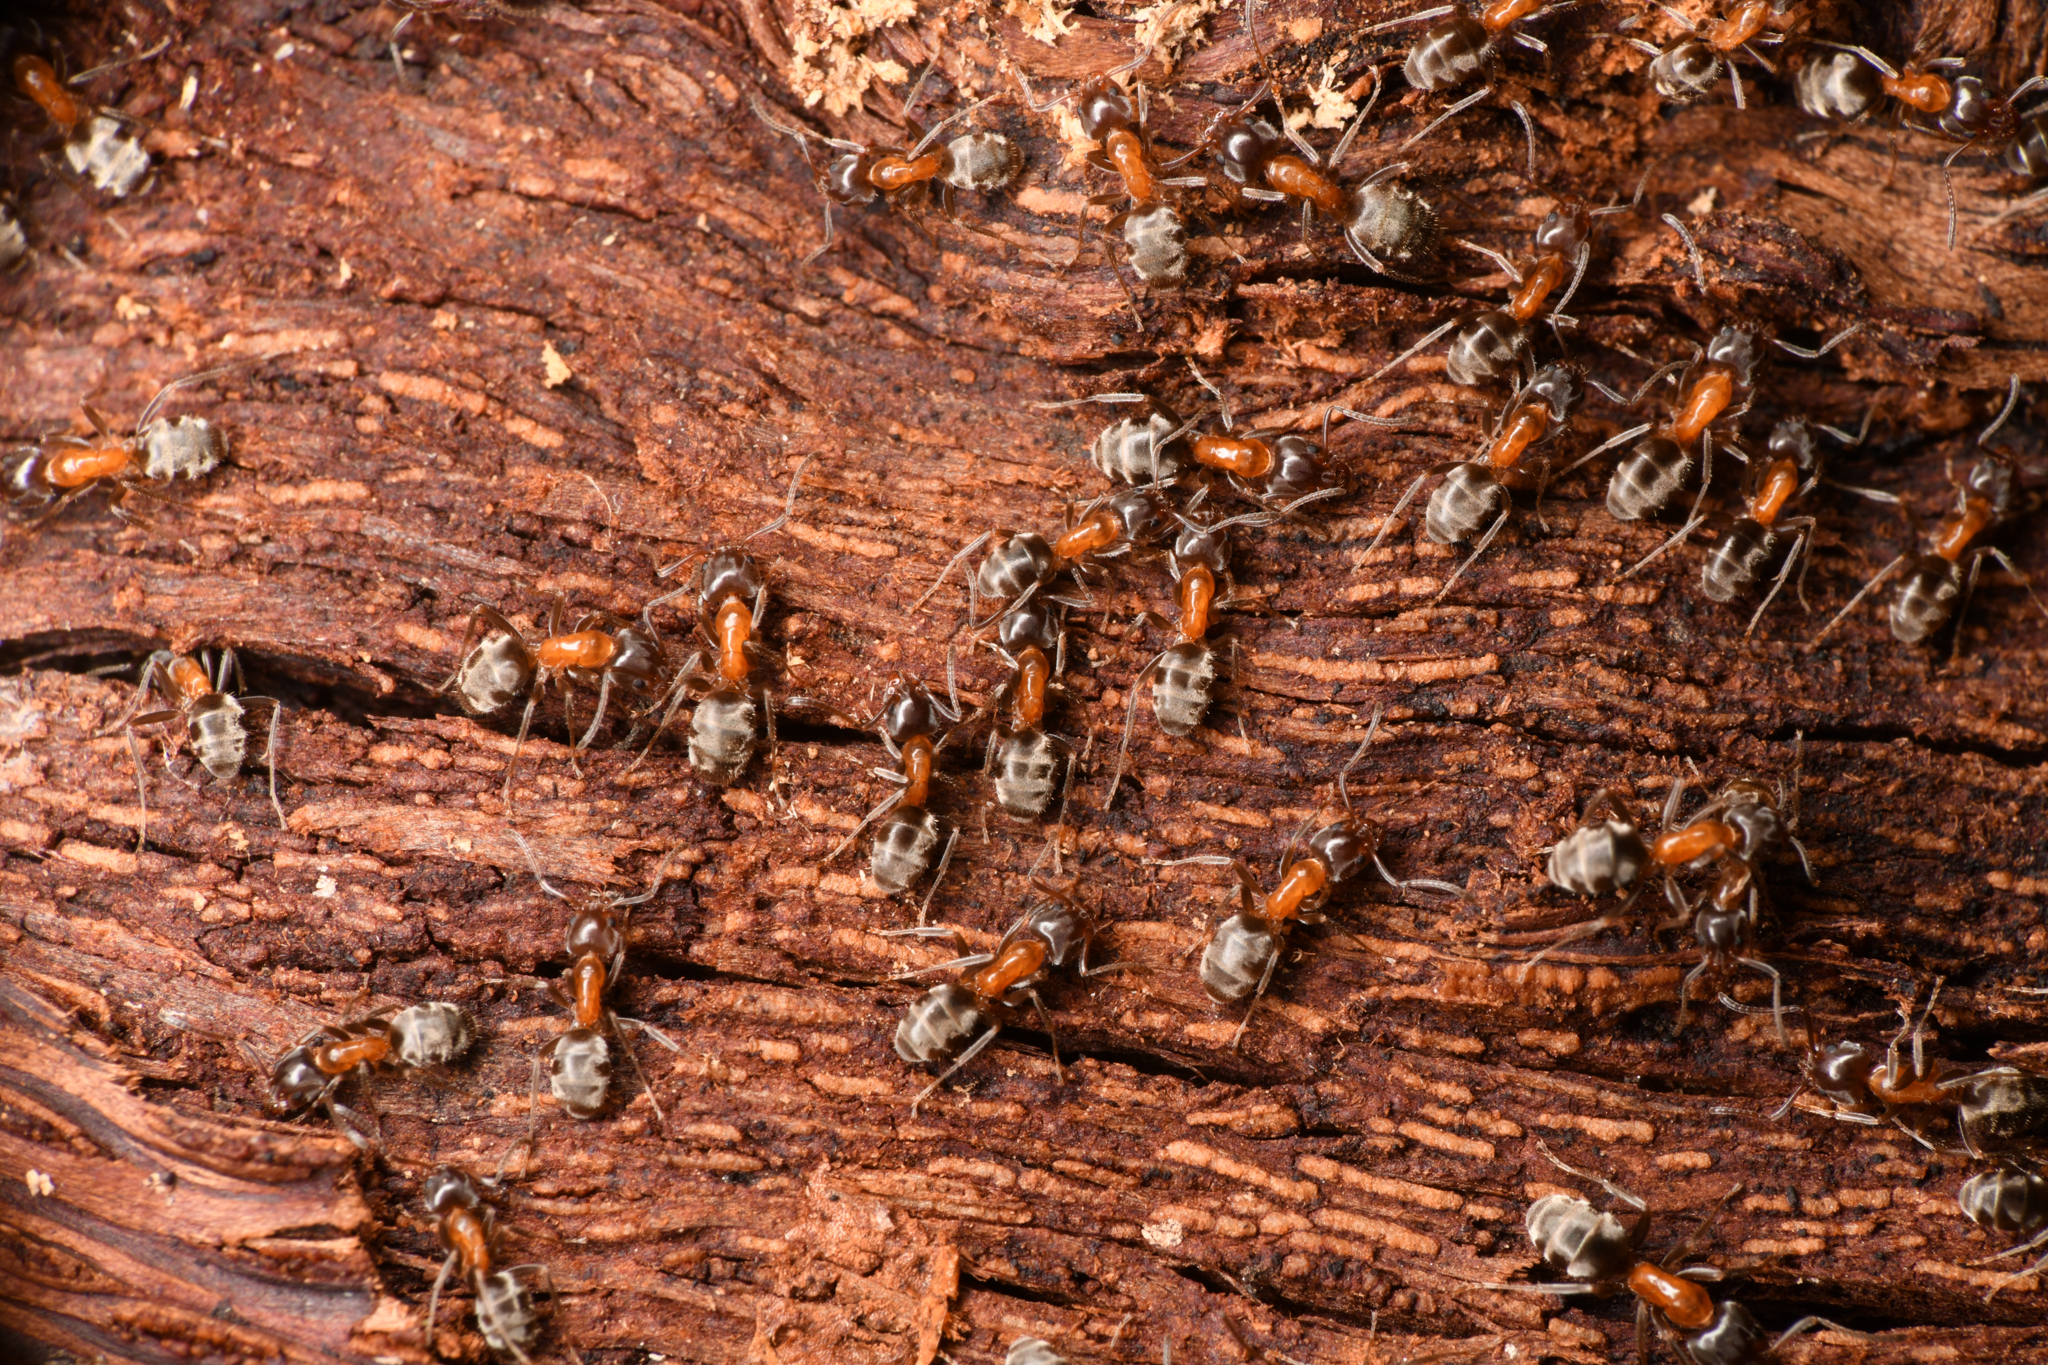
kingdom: Animalia
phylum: Arthropoda
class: Insecta
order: Hymenoptera
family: Formicidae
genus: Liometopum
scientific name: Liometopum occidentale
